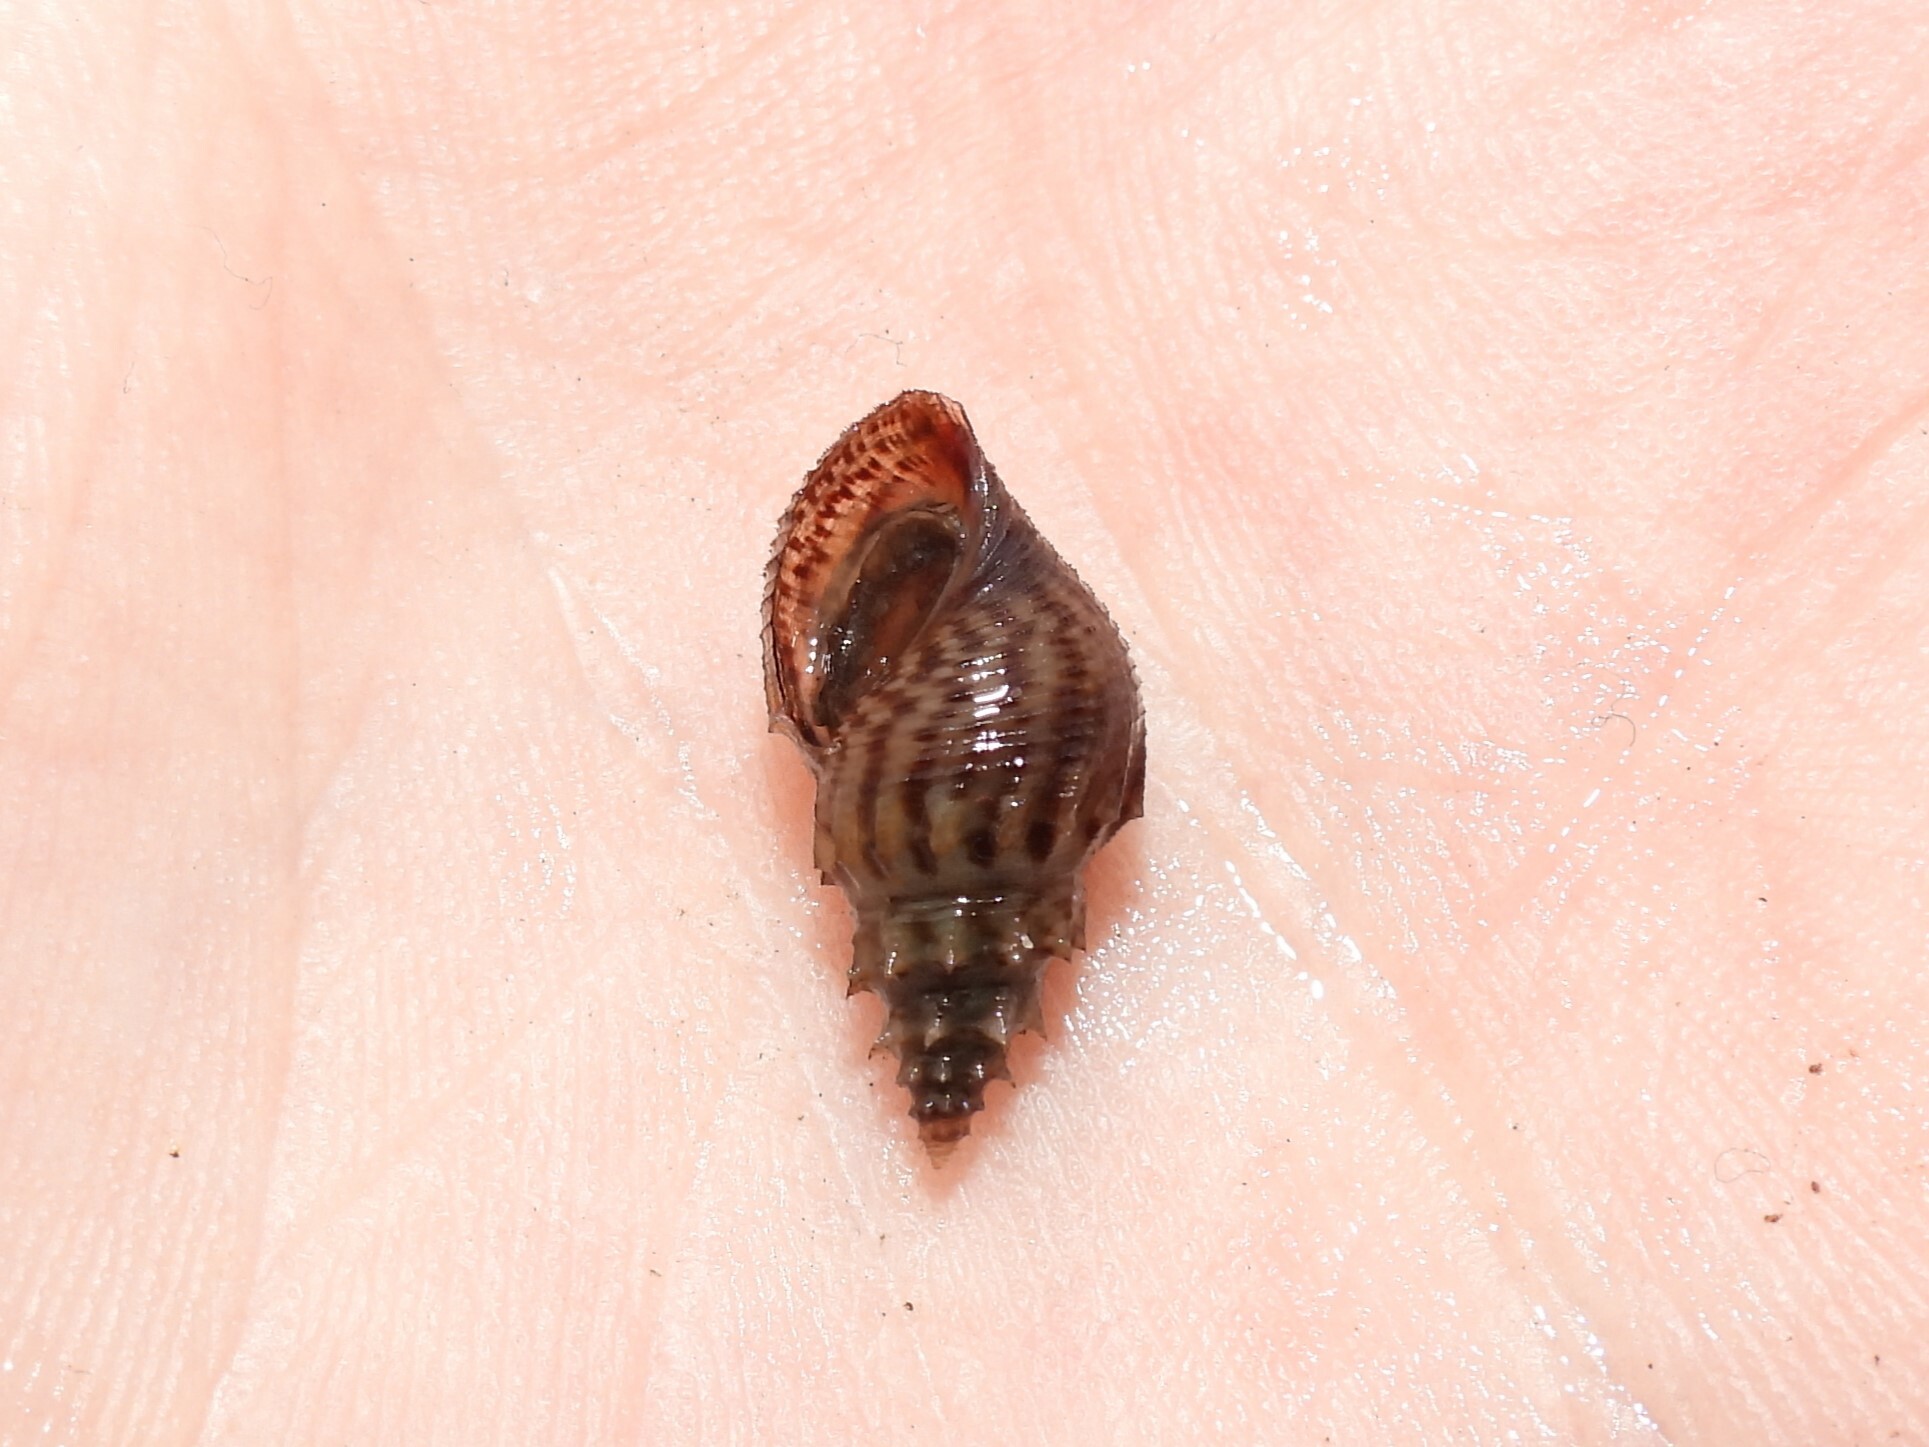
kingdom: Animalia
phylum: Mollusca
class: Gastropoda
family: Thiaridae
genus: Mieniplotia
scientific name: Mieniplotia scabra
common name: Prambanan snail
